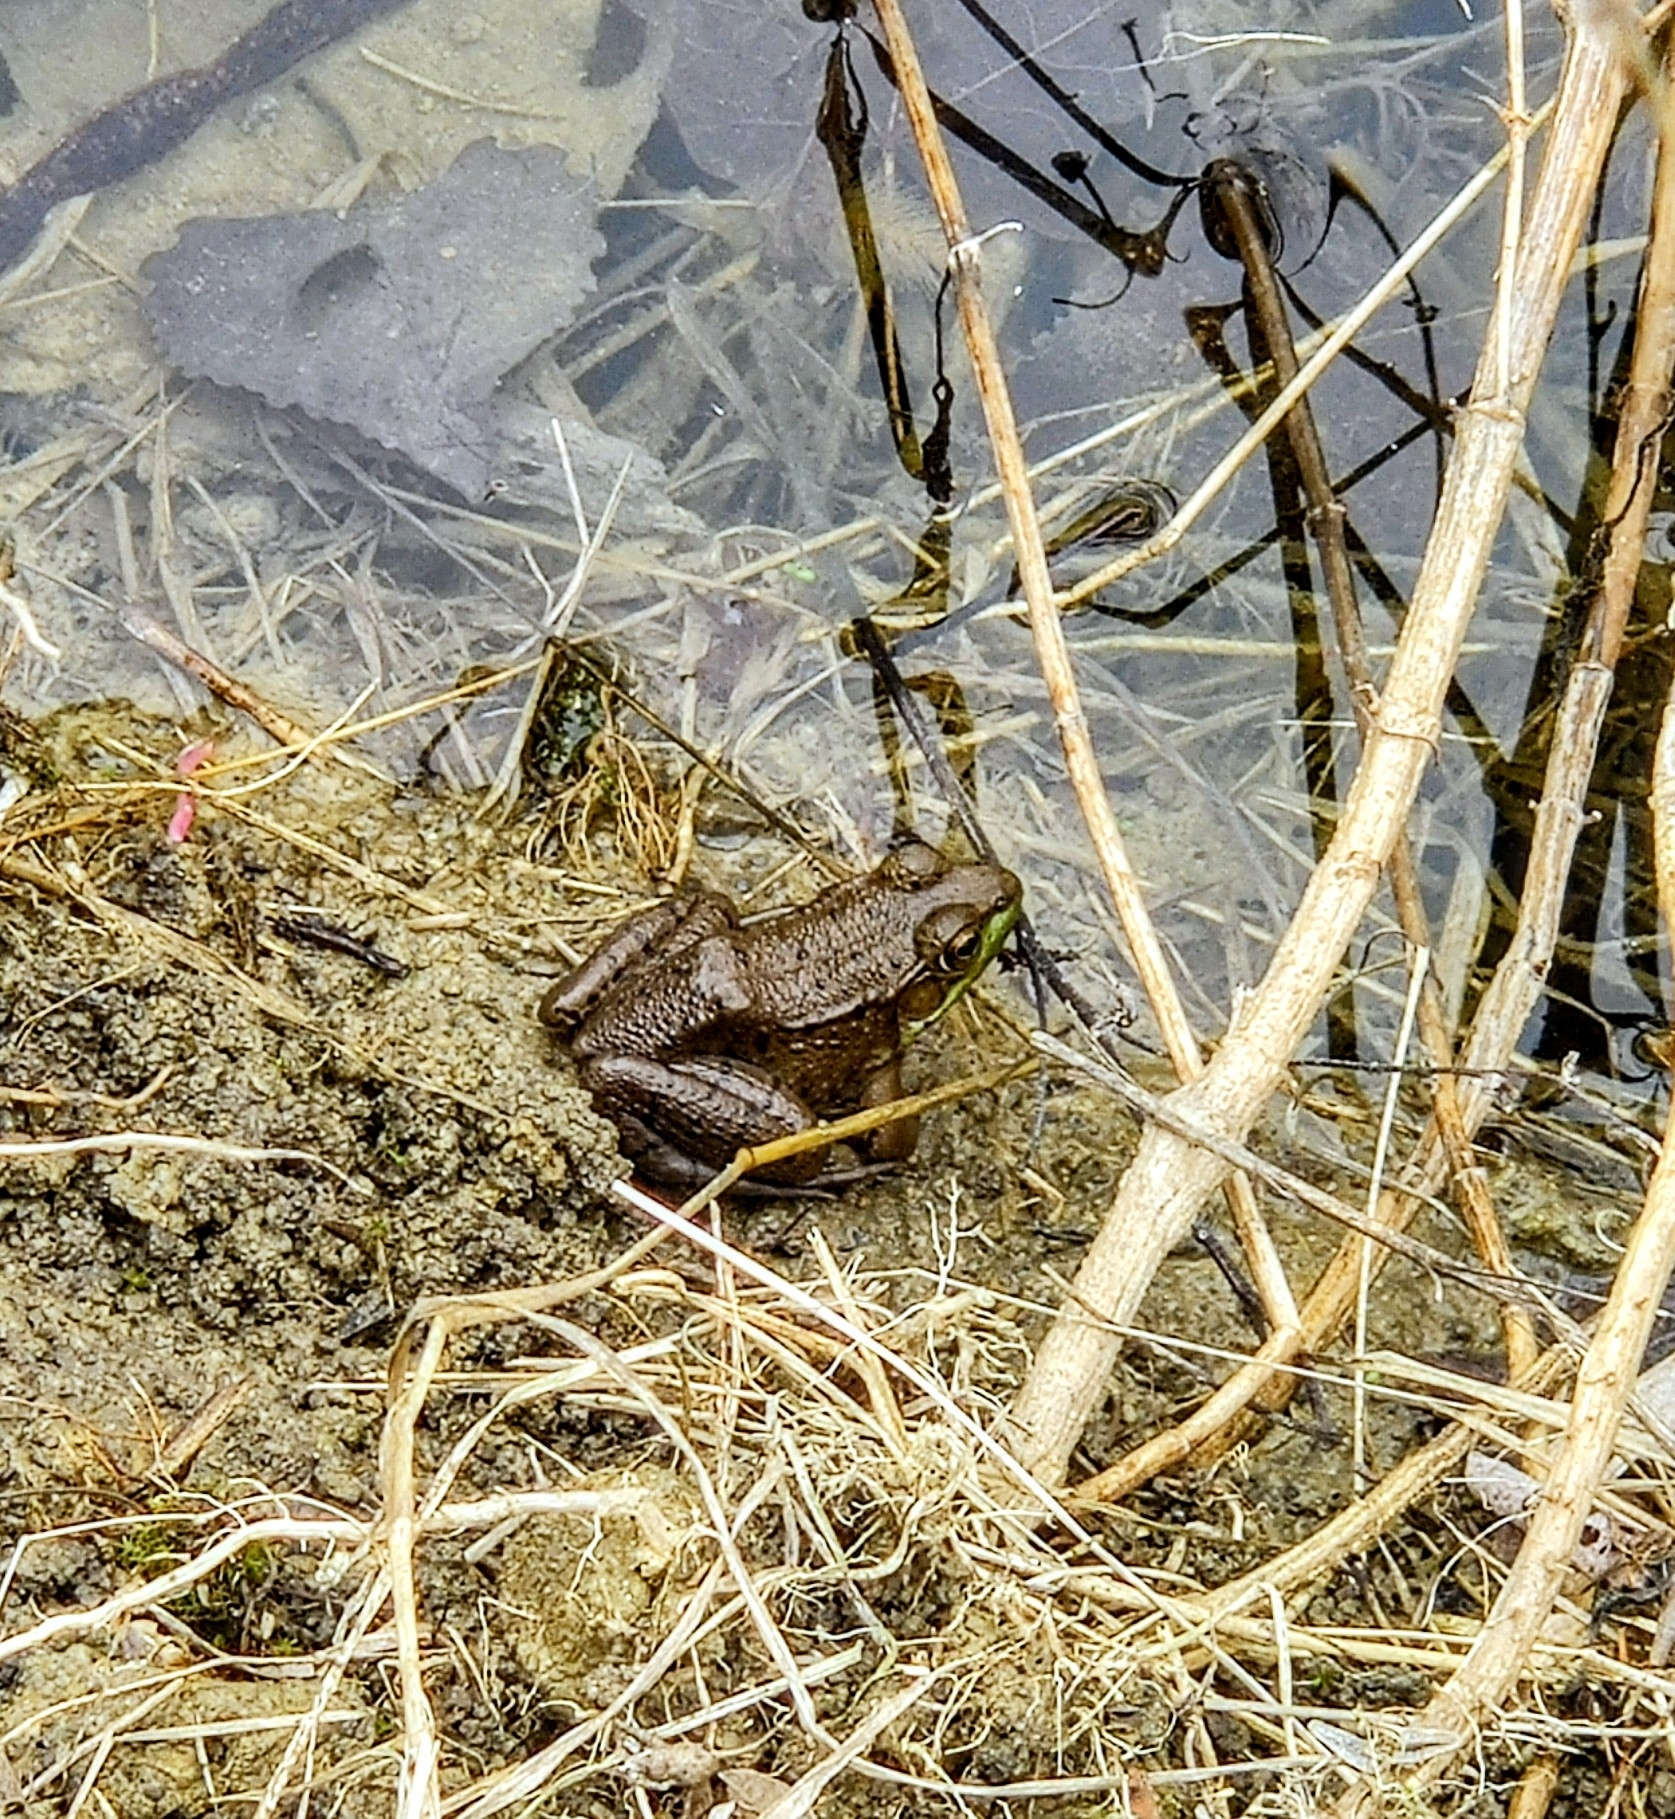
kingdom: Animalia
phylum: Chordata
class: Amphibia
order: Anura
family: Ranidae
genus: Lithobates
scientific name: Lithobates clamitans
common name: Green frog
